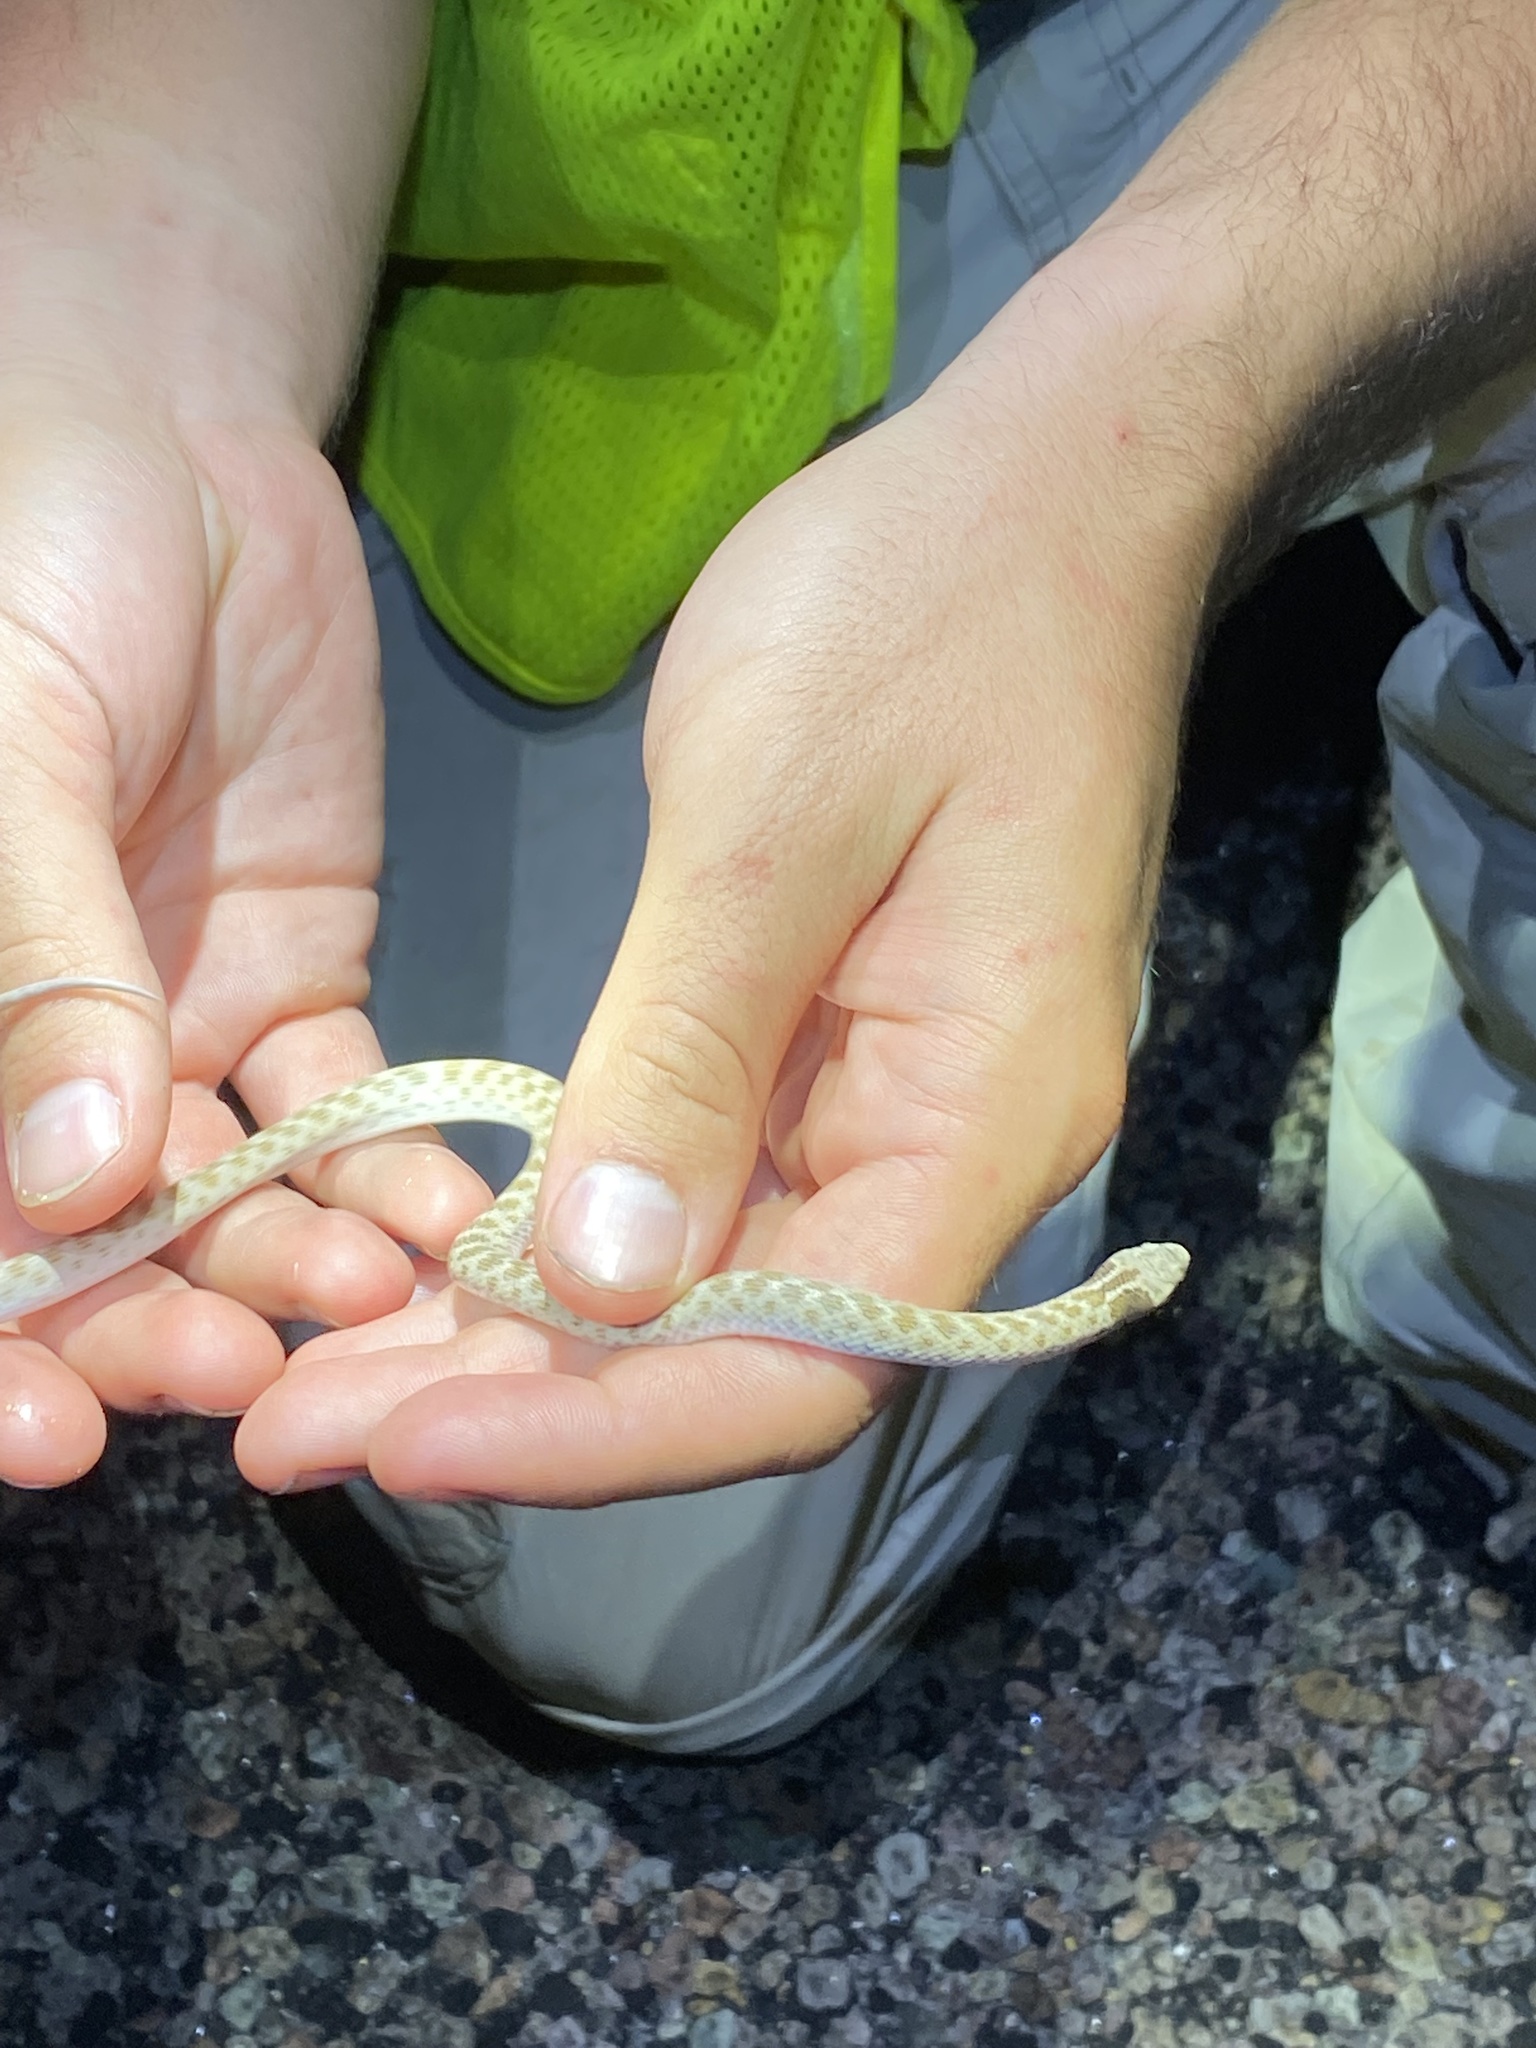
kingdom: Animalia
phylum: Chordata
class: Squamata
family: Colubridae
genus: Hypsiglena
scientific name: Hypsiglena jani
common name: Chihuahuan nightsnake
